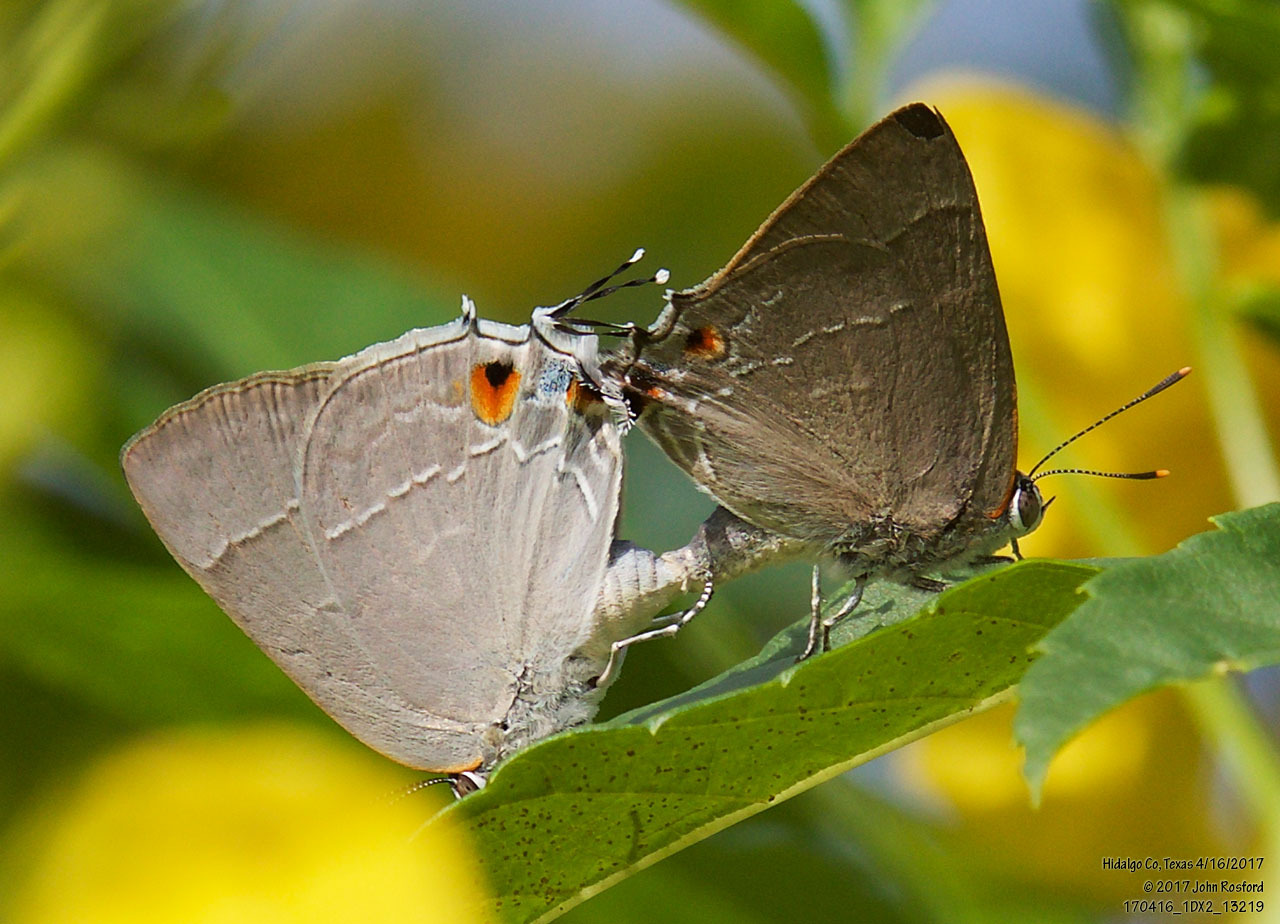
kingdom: Animalia
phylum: Arthropoda
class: Insecta
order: Lepidoptera
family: Lycaenidae
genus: Thecla
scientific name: Thecla marius
